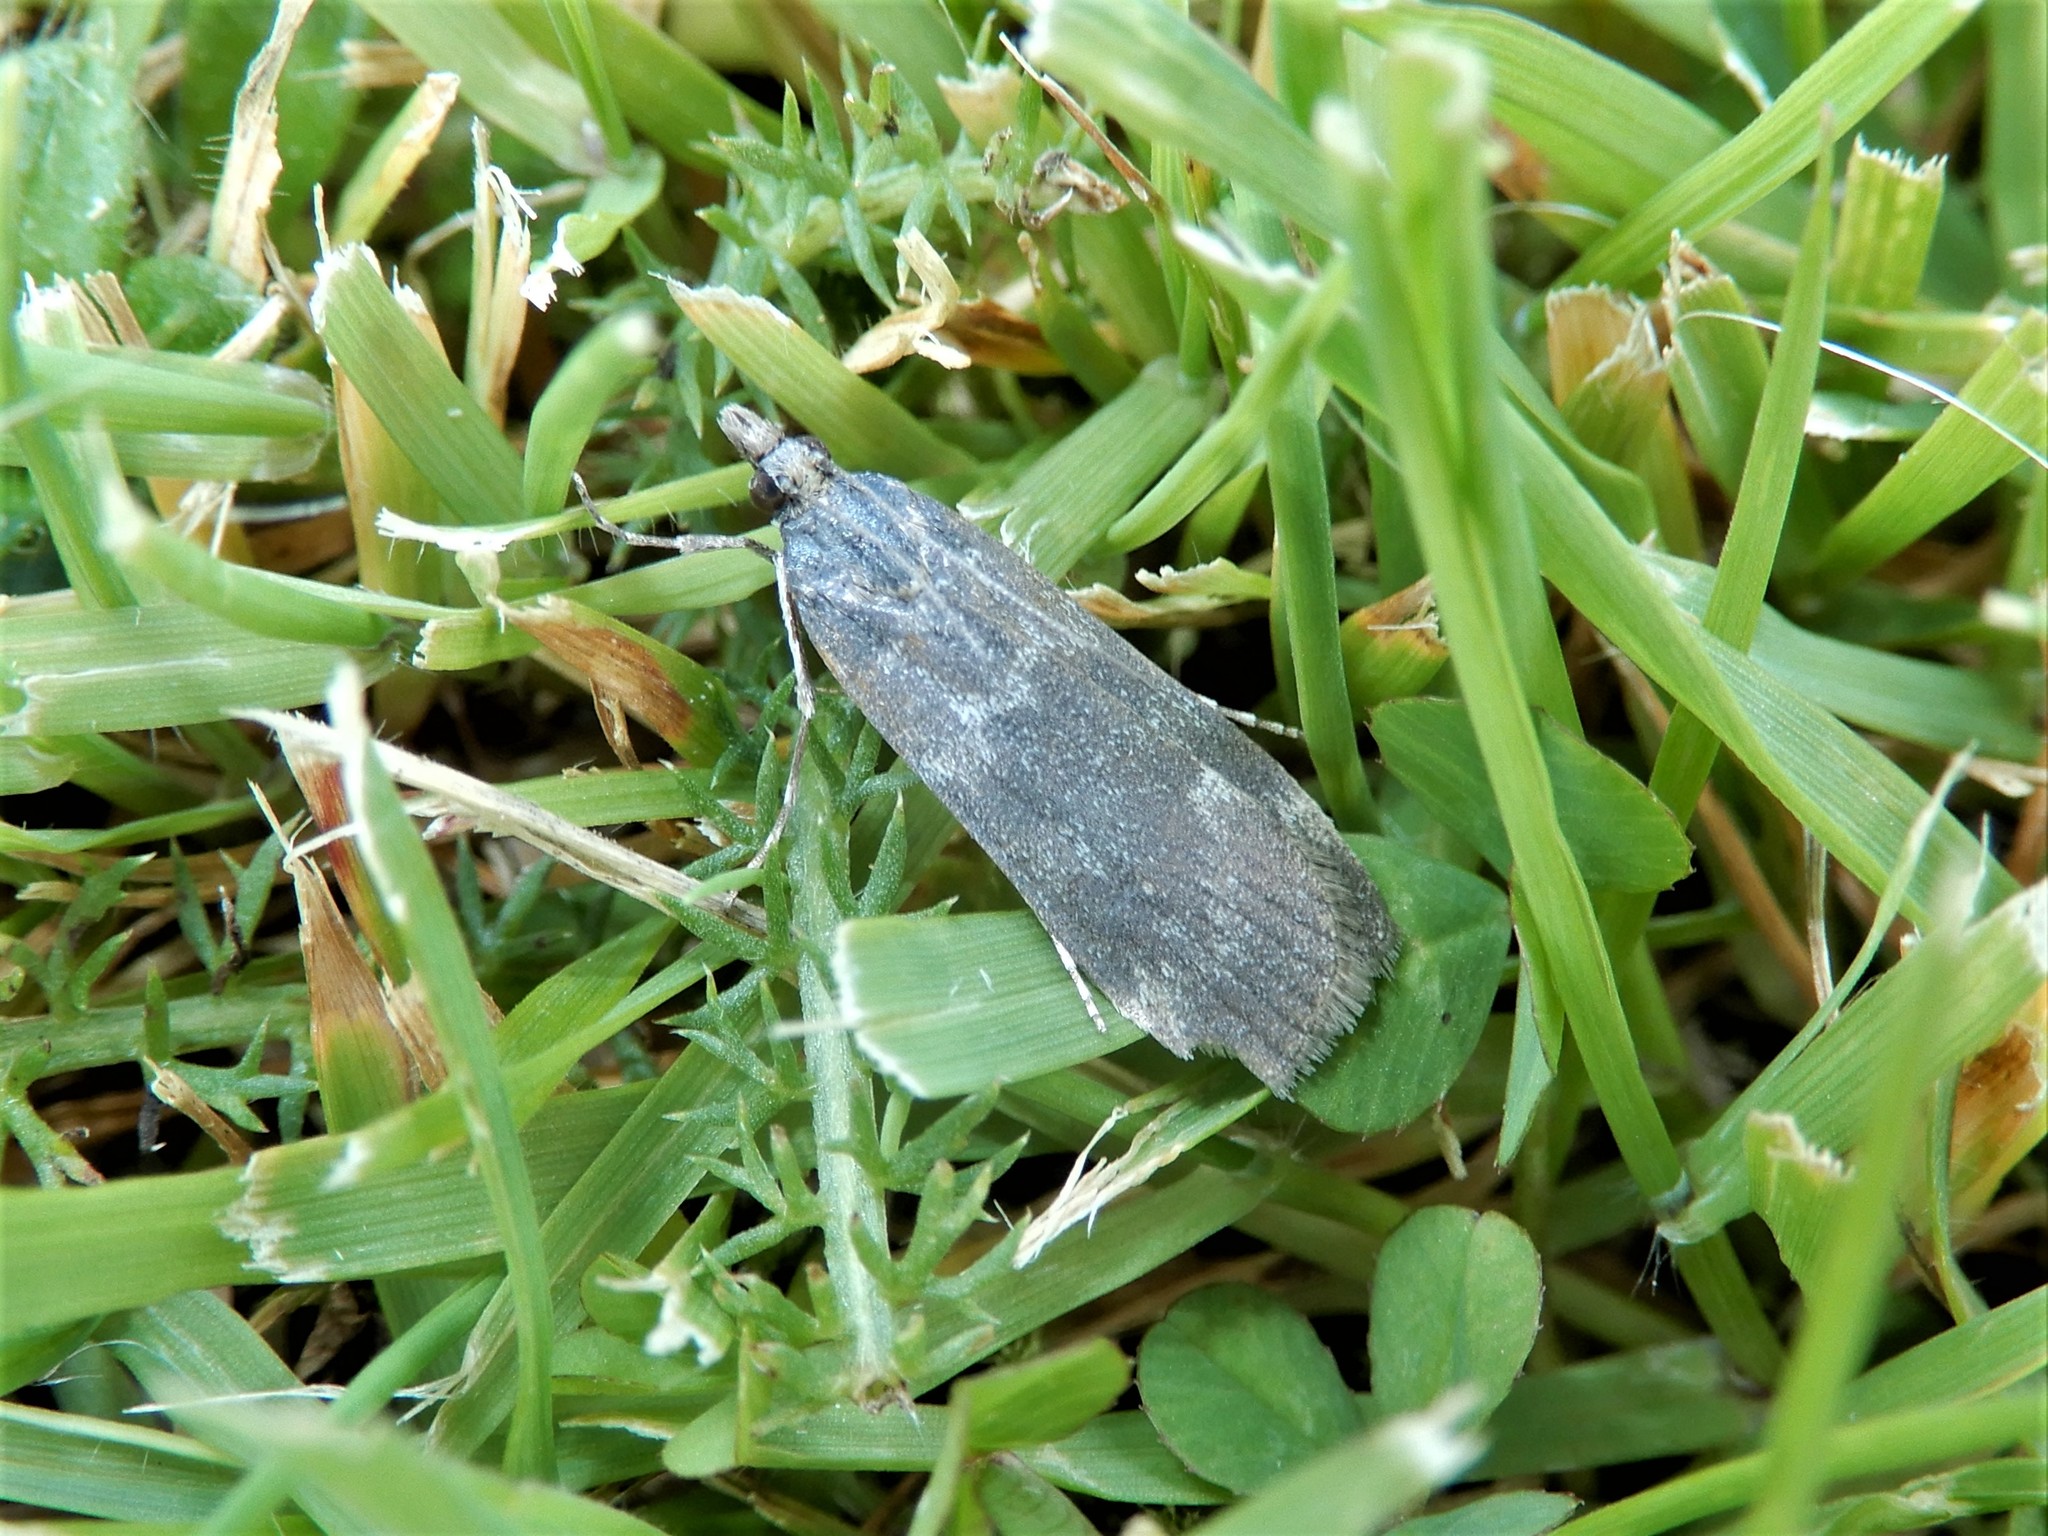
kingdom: Animalia
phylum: Arthropoda
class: Insecta
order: Lepidoptera
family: Crambidae
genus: Eudonia
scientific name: Eudonia cataxesta
